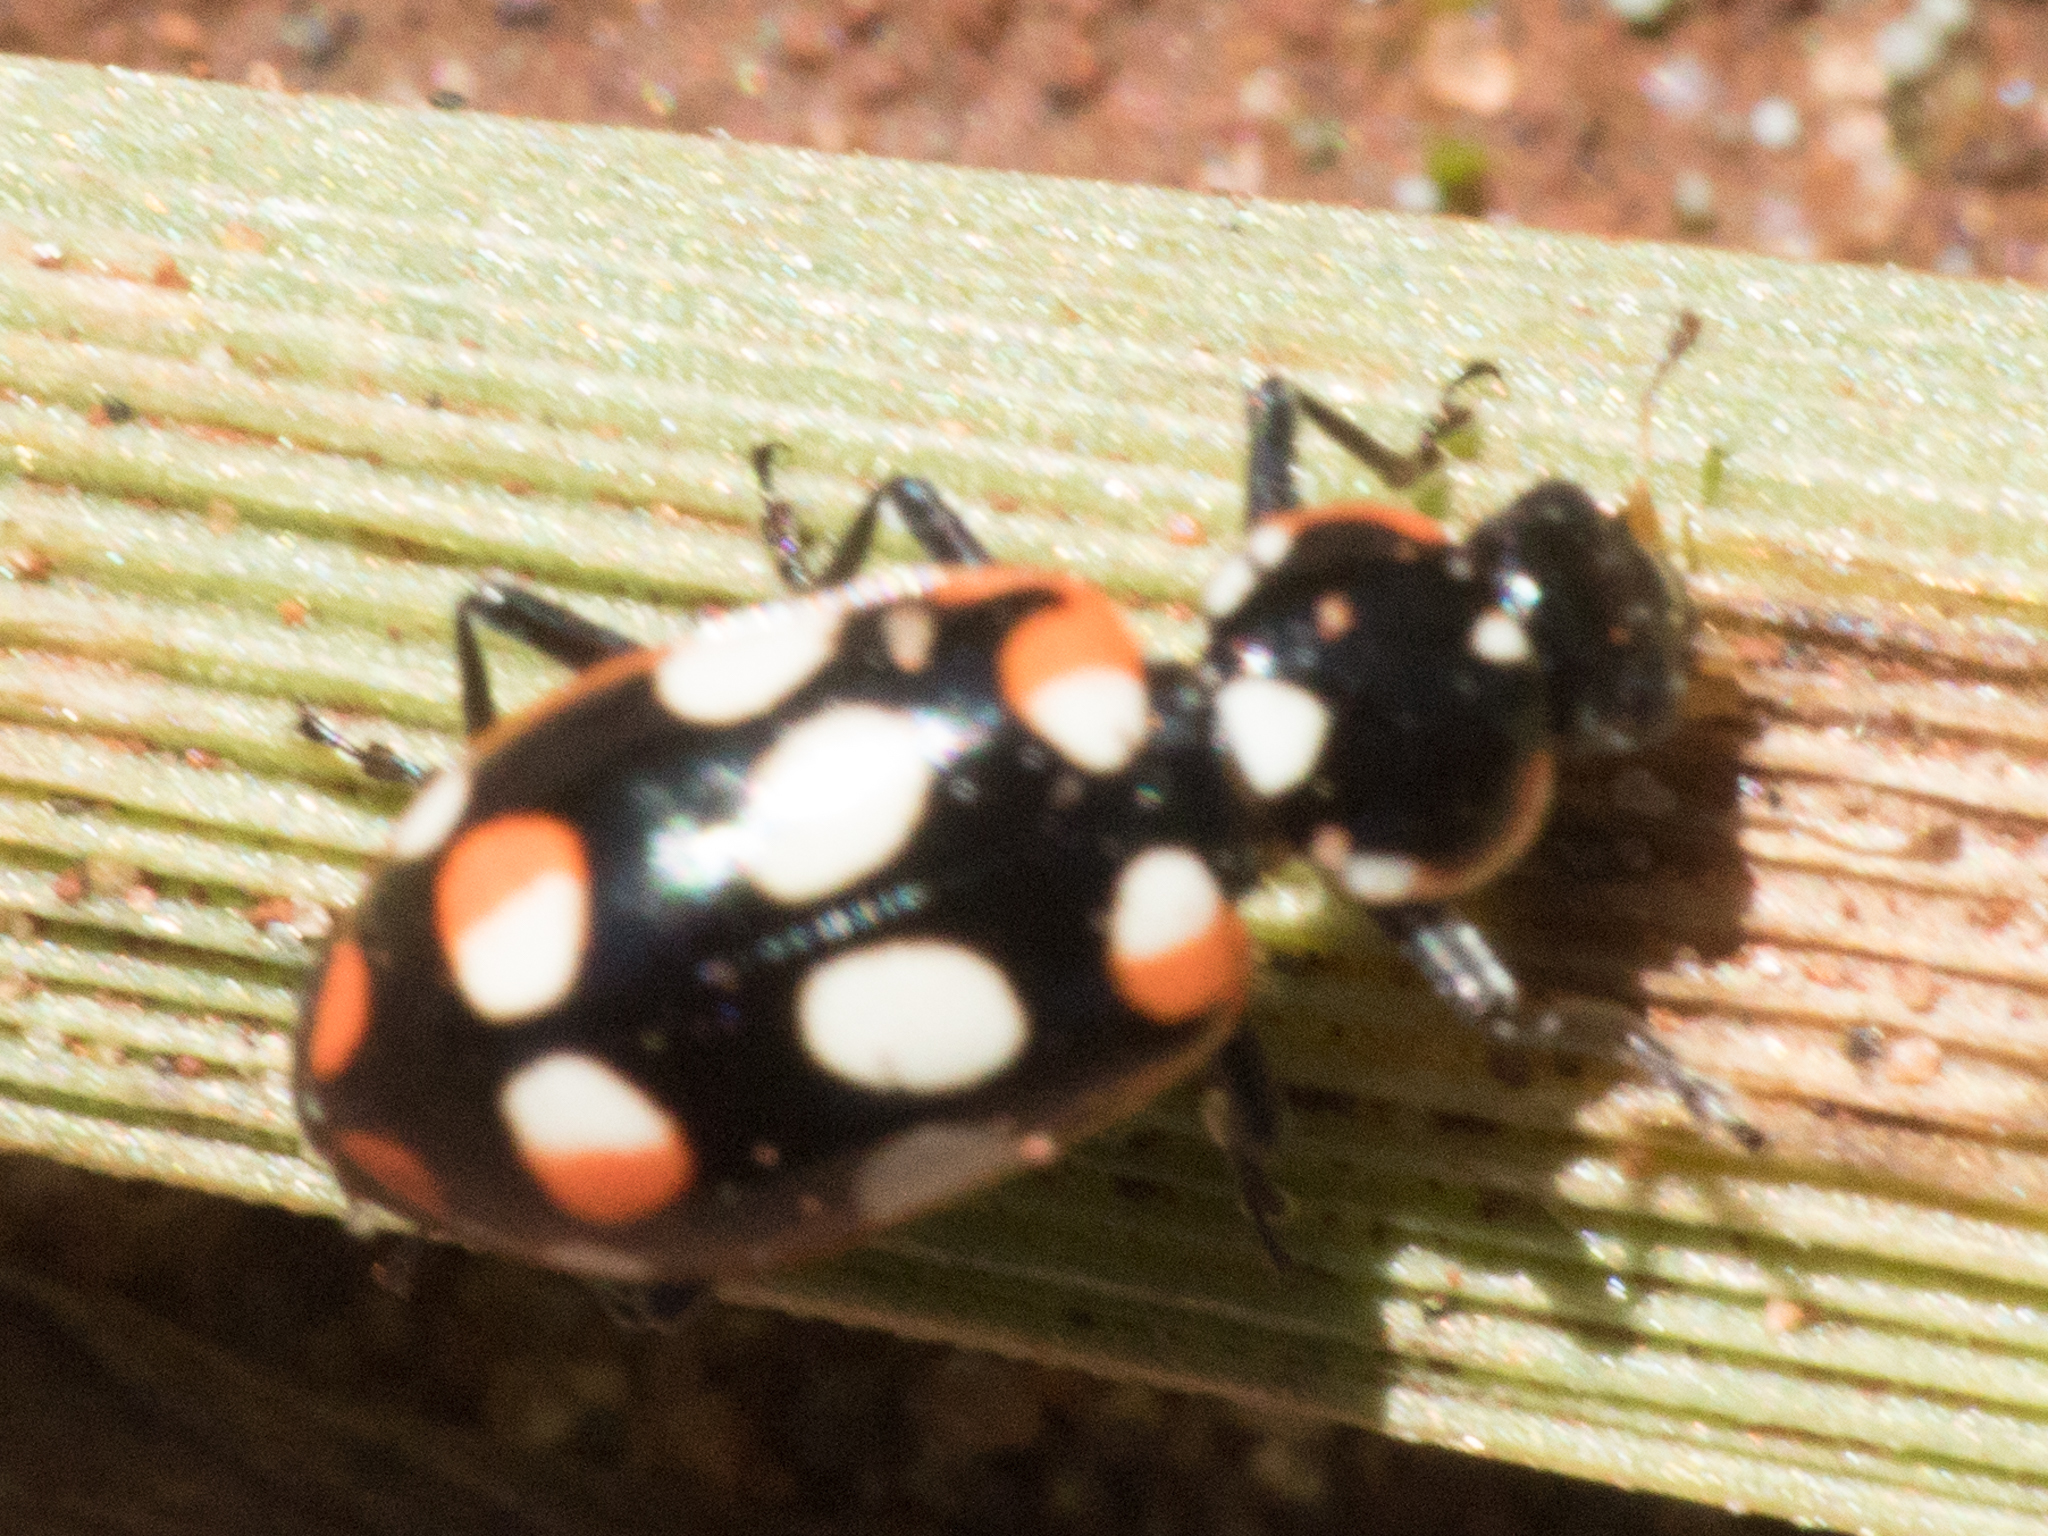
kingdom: Animalia
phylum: Arthropoda
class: Insecta
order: Coleoptera
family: Coccinellidae
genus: Eriopis
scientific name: Eriopis connexa
